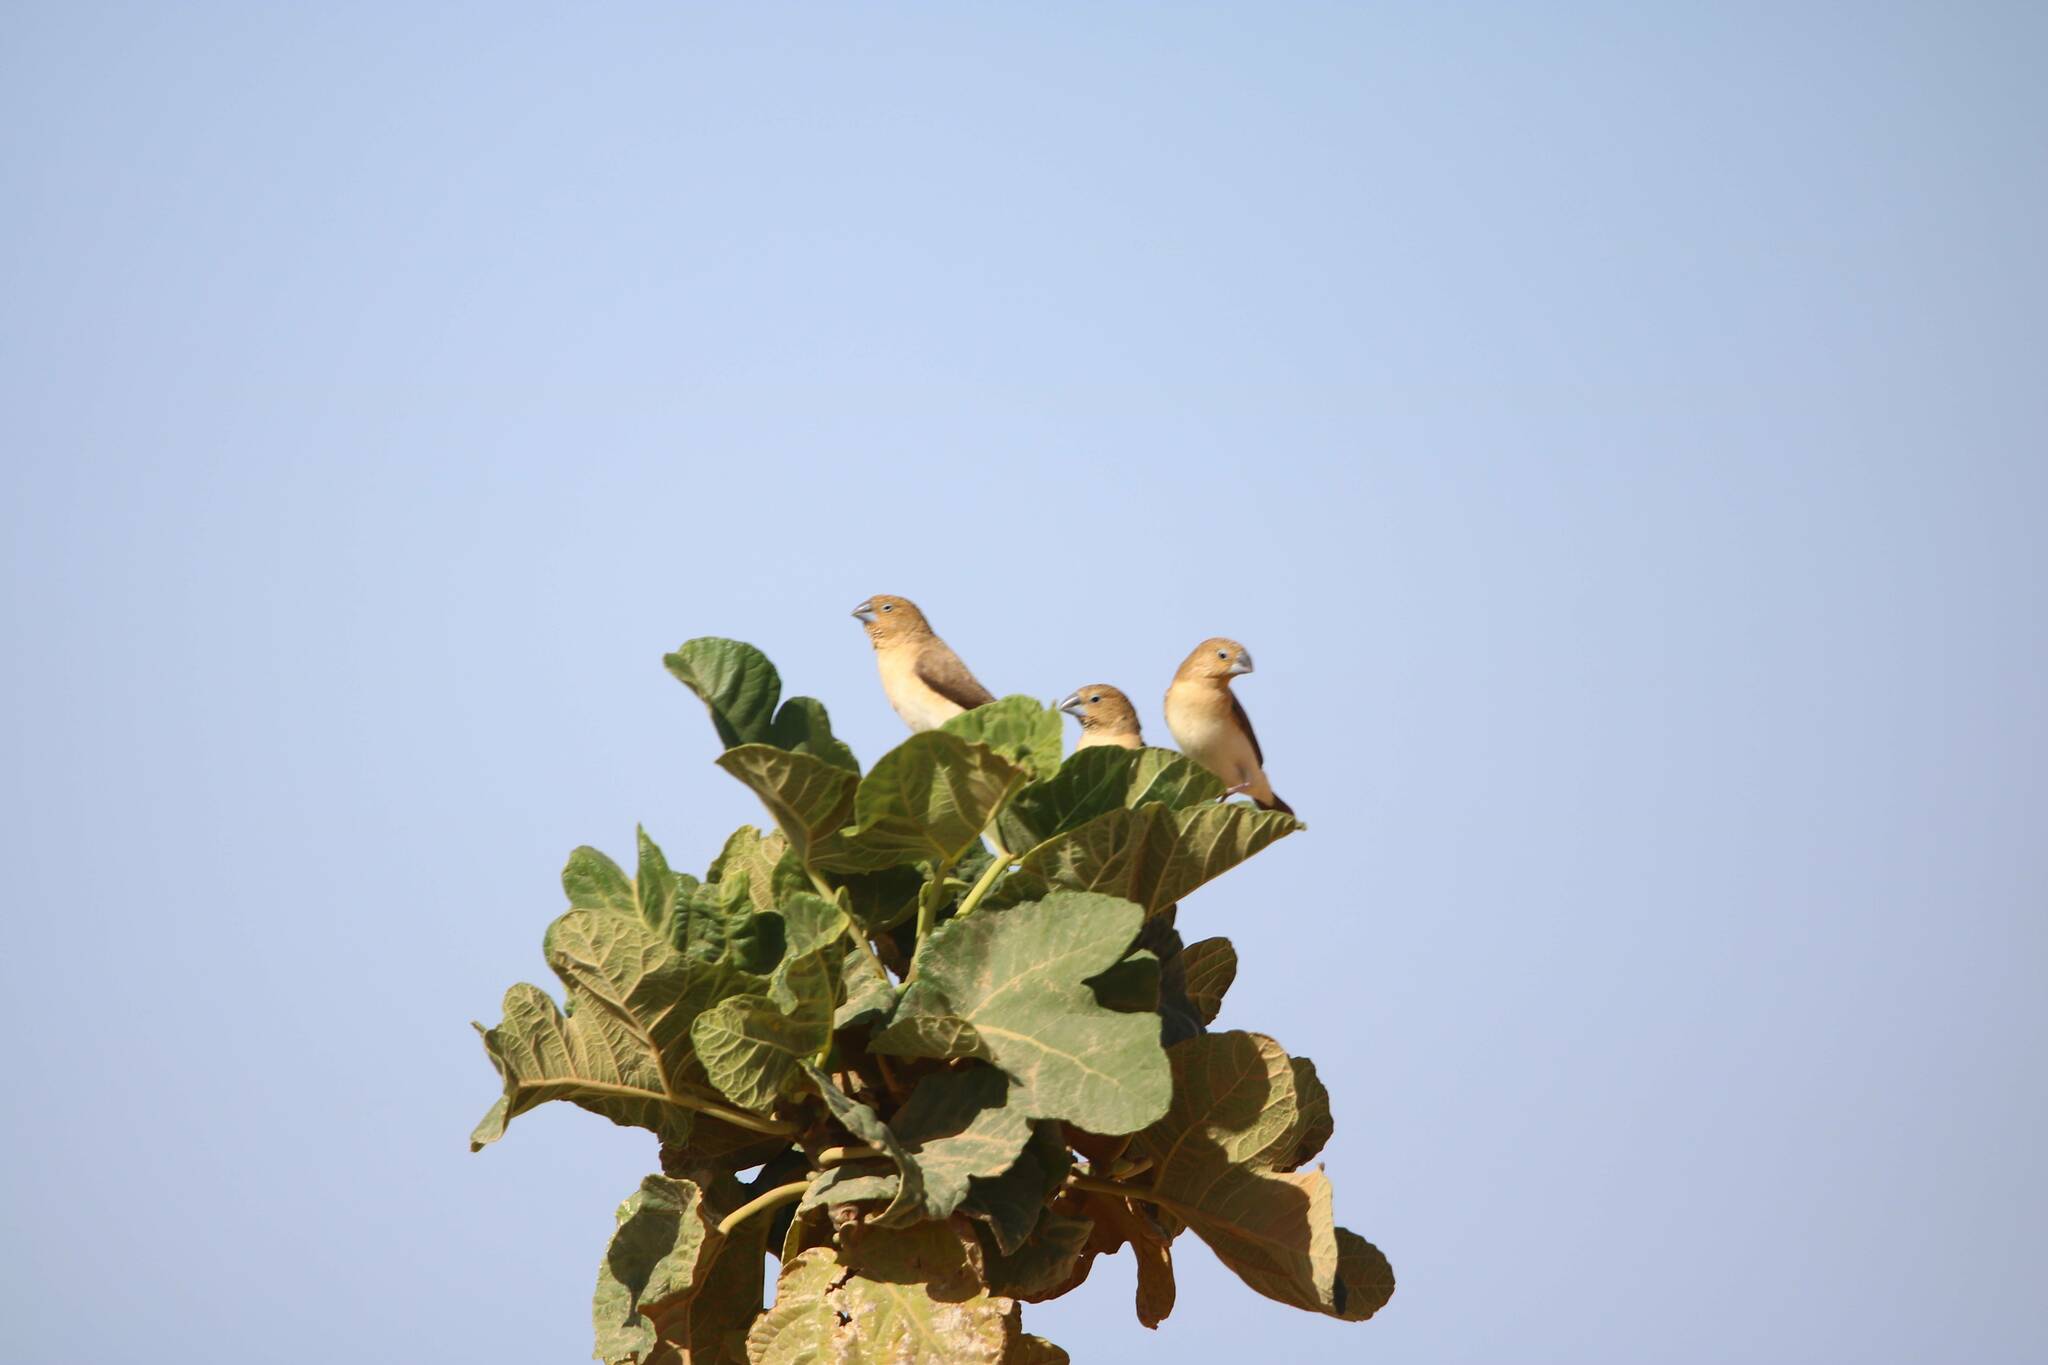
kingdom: Animalia
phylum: Chordata
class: Aves
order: Passeriformes
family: Estrildidae
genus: Euodice
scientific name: Euodice cantans
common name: African silverbill
